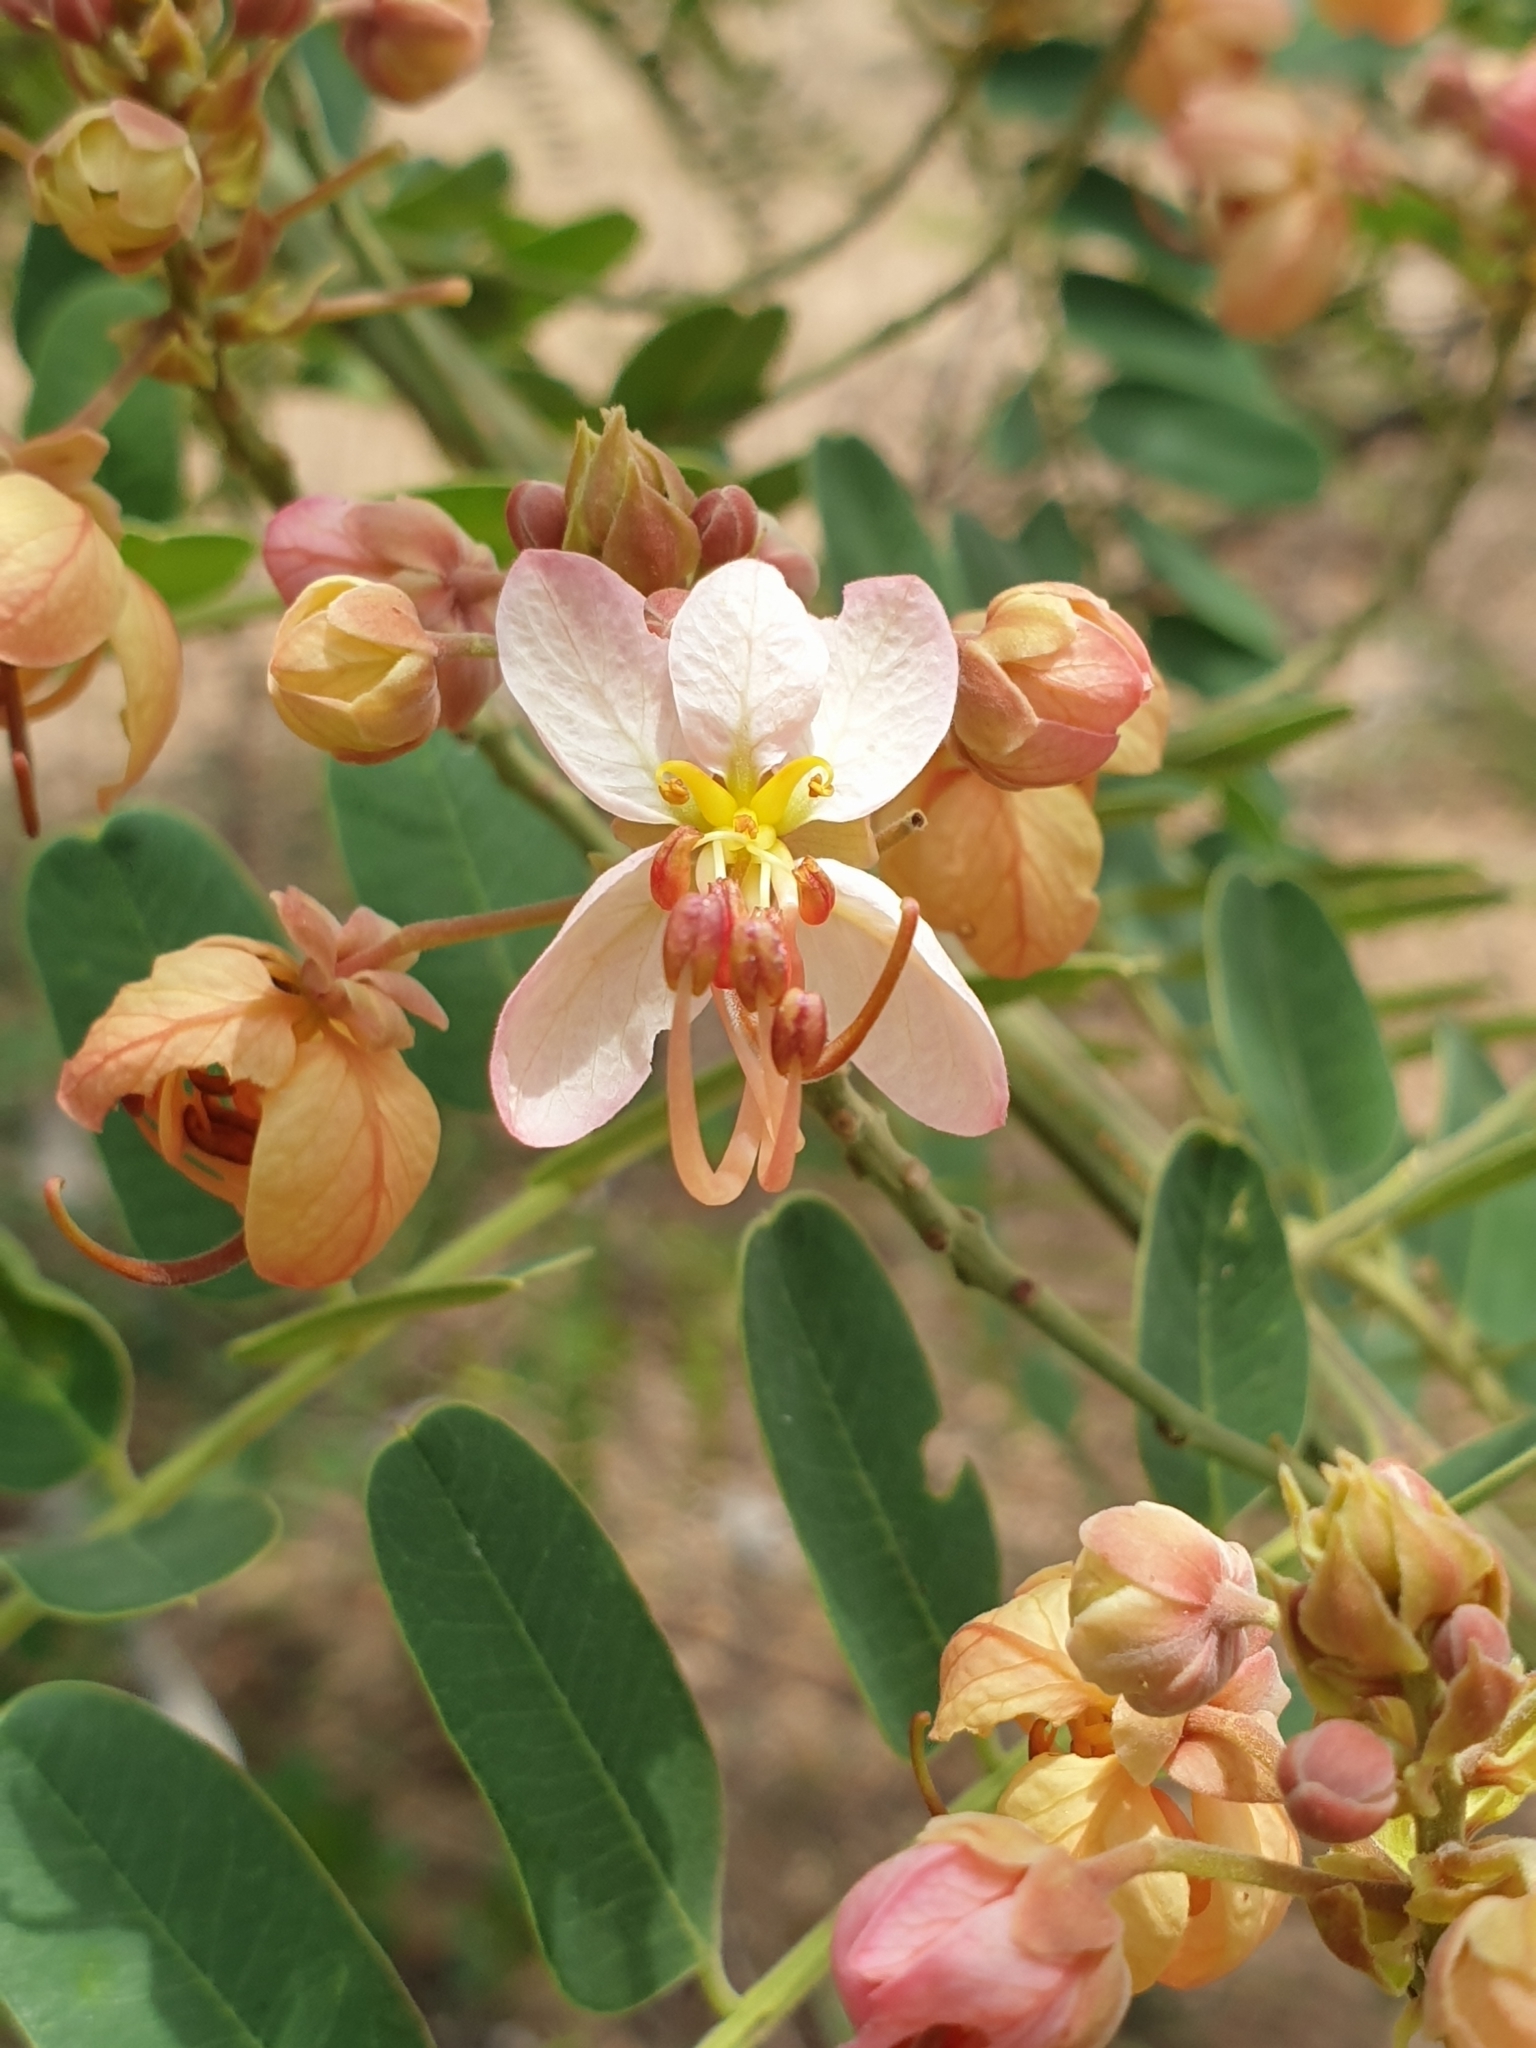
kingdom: Plantae
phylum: Tracheophyta
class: Magnoliopsida
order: Fabales
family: Fabaceae
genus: Cassia
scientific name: Cassia roxburghii
